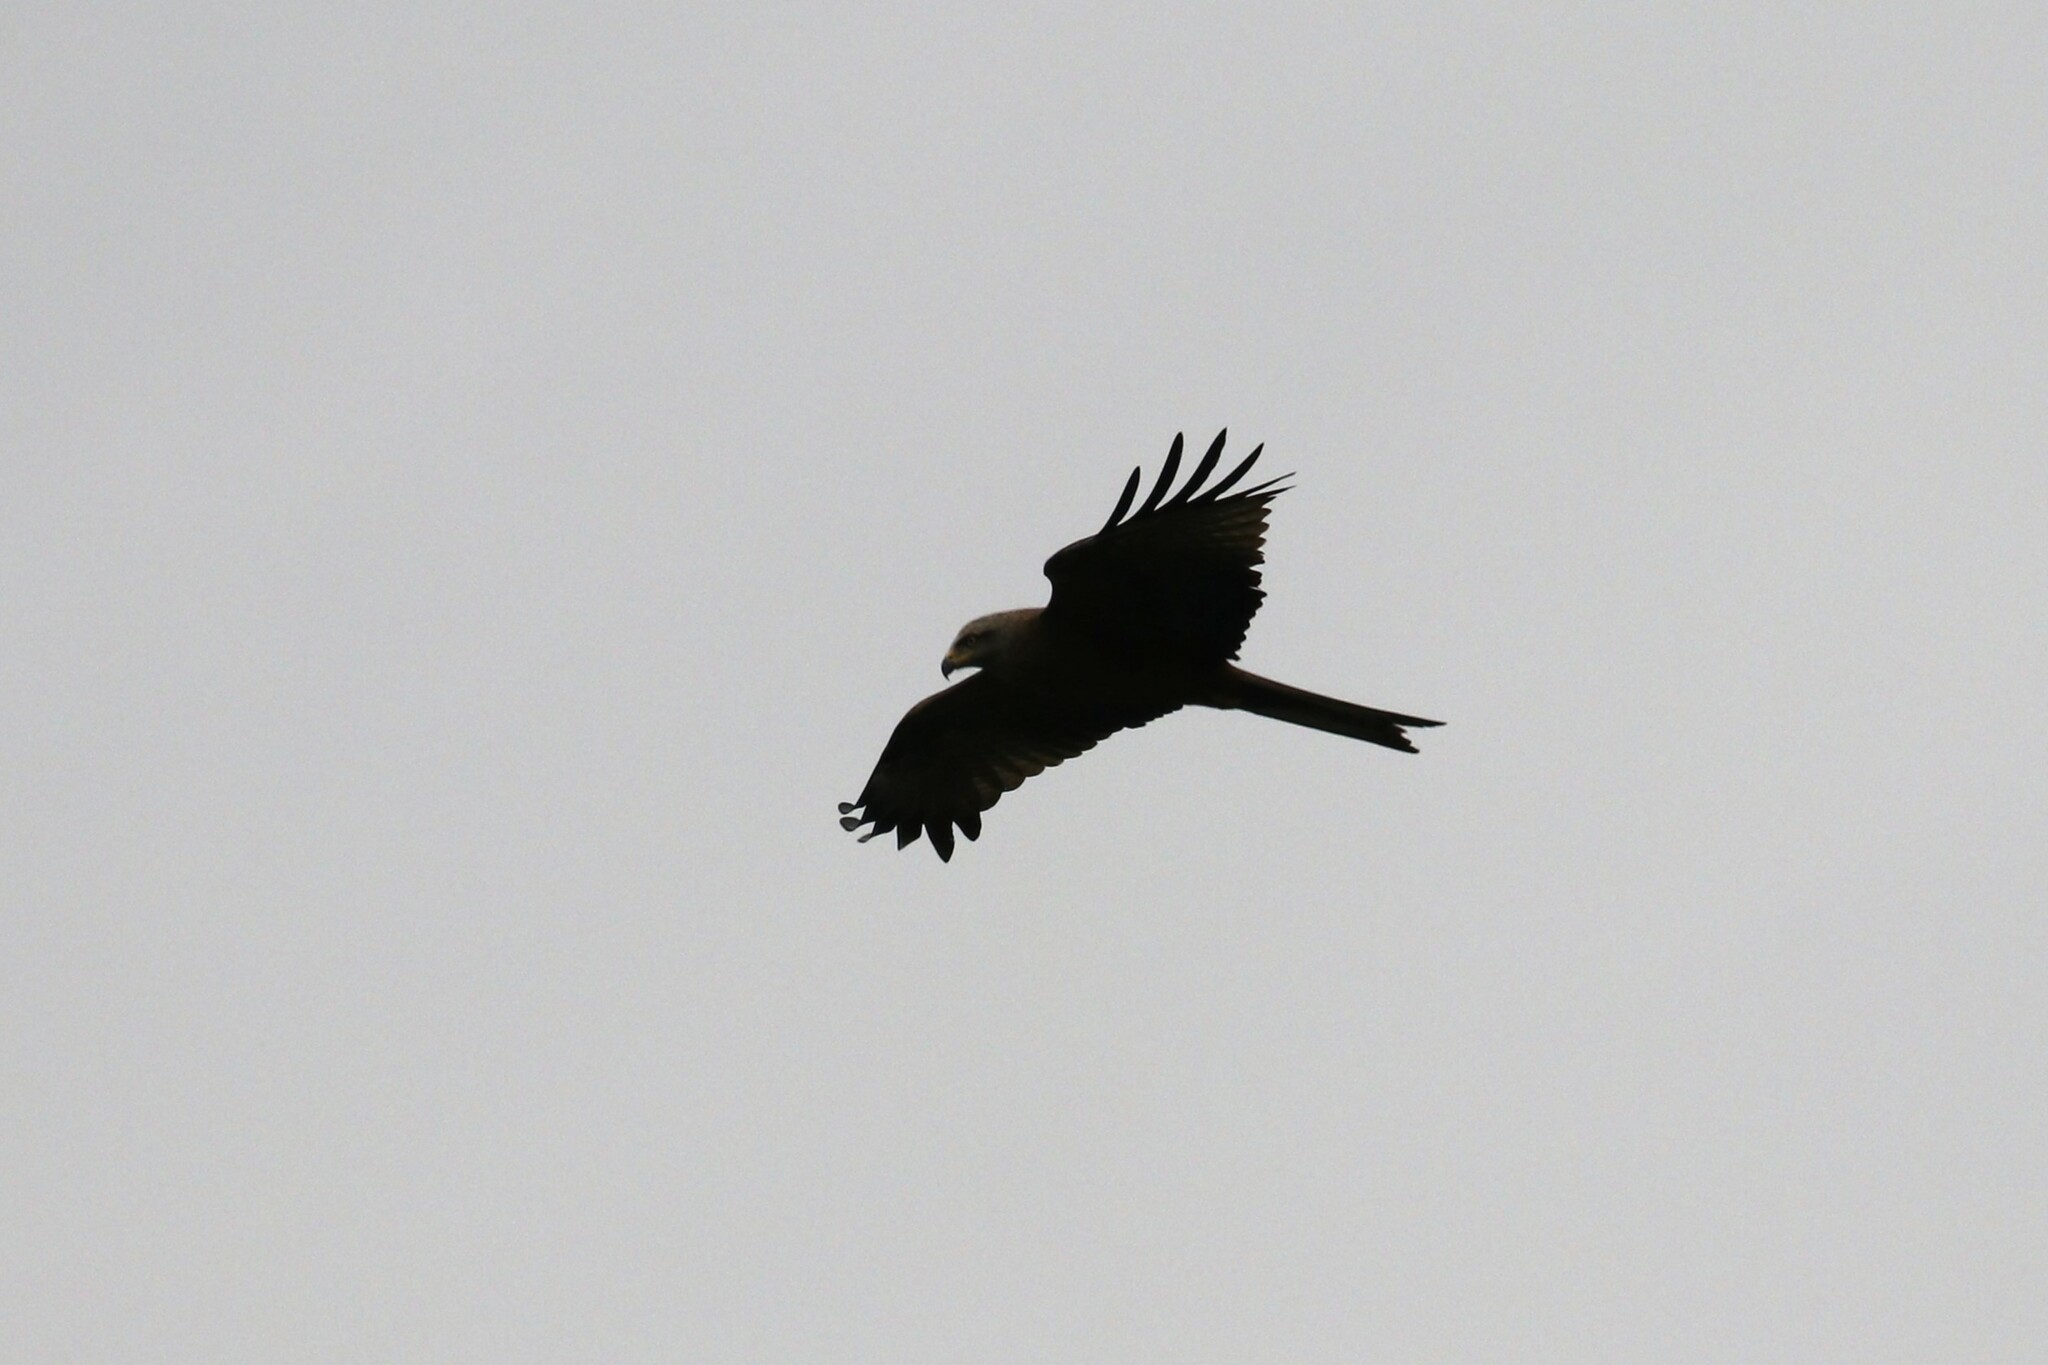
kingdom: Animalia
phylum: Chordata
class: Aves
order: Accipitriformes
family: Accipitridae
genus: Milvus
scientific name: Milvus migrans
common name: Black kite
